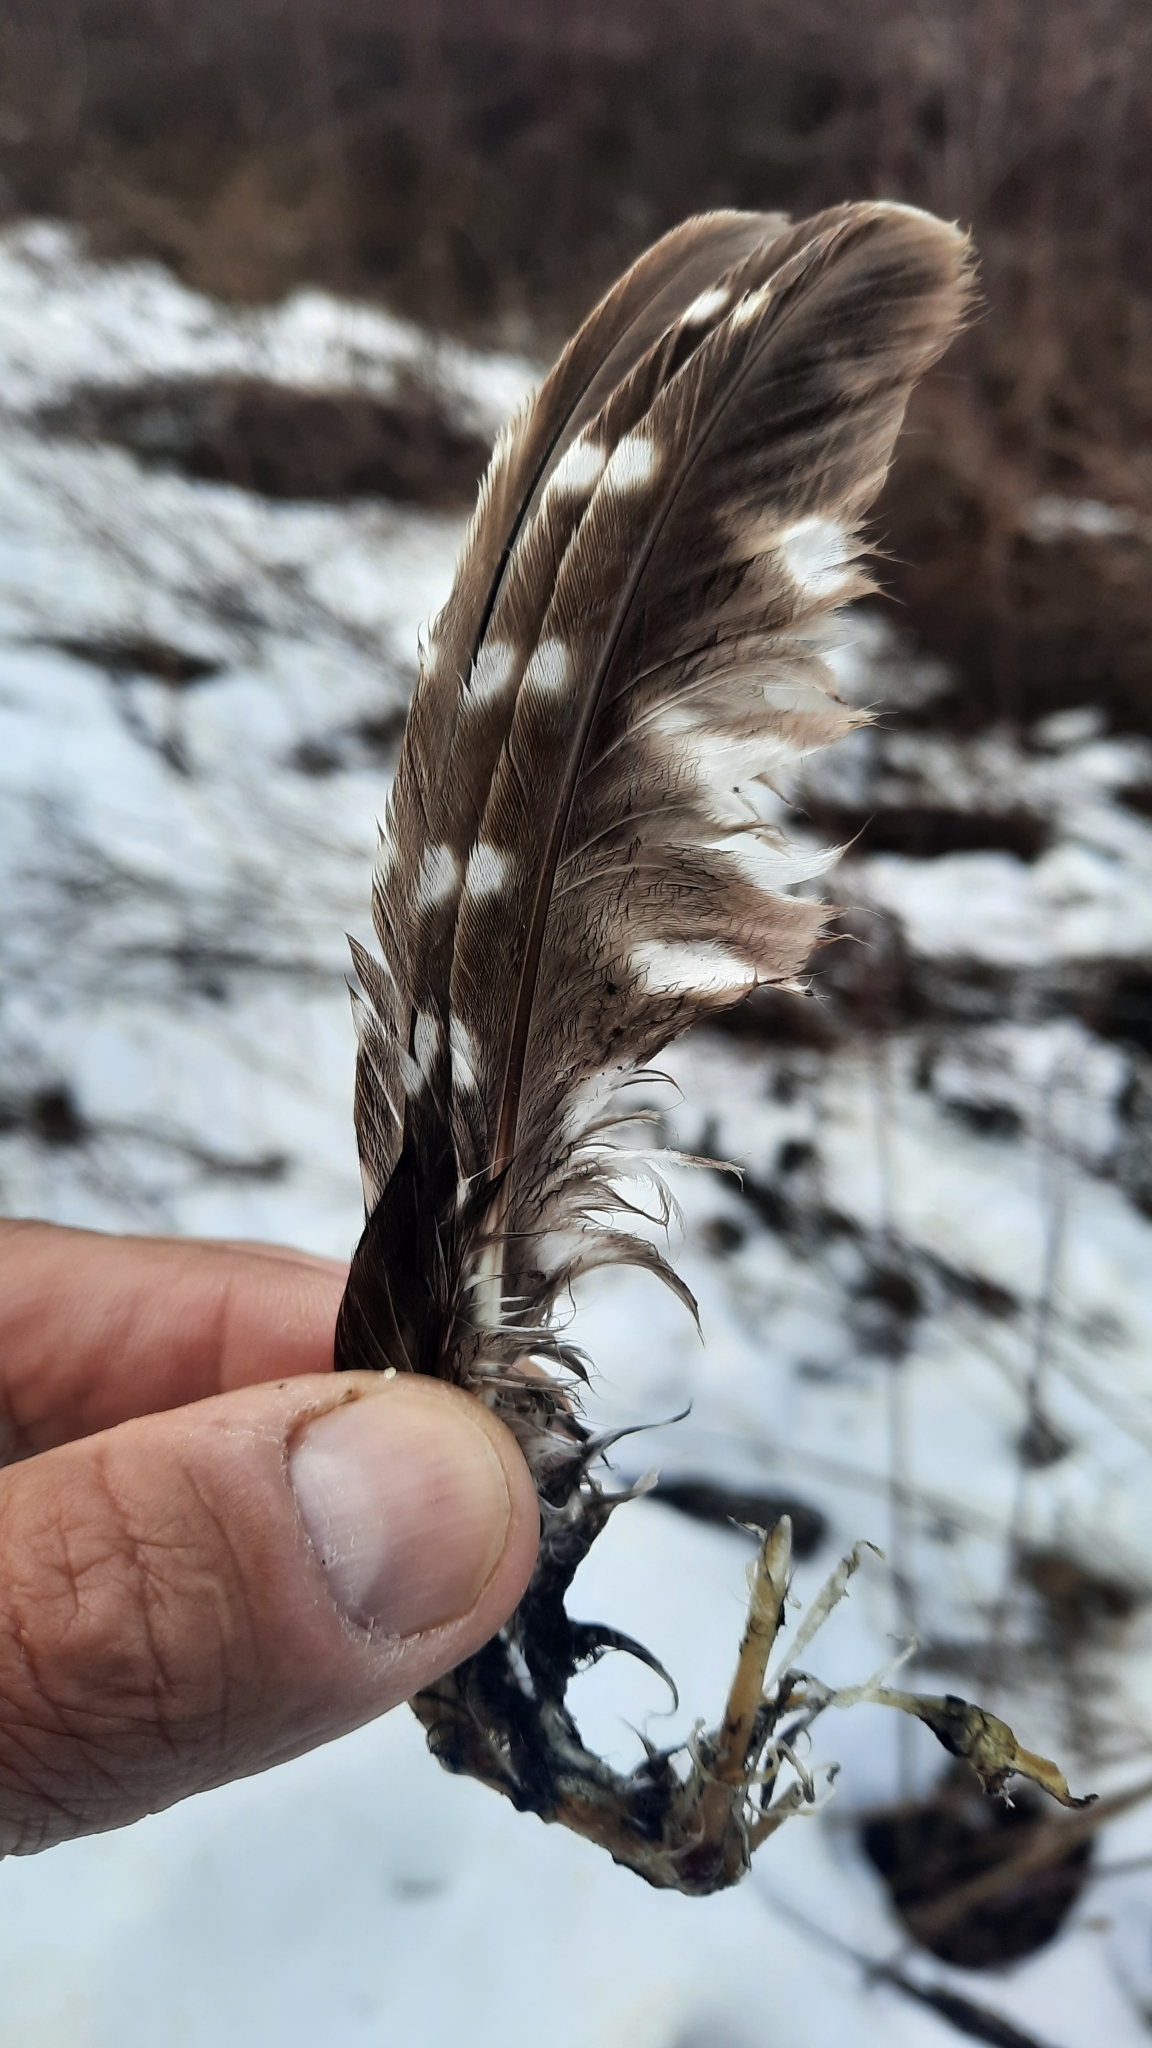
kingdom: Animalia
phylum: Chordata
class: Aves
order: Strigiformes
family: Strigidae
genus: Aegolius
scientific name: Aegolius funereus
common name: Boreal owl
